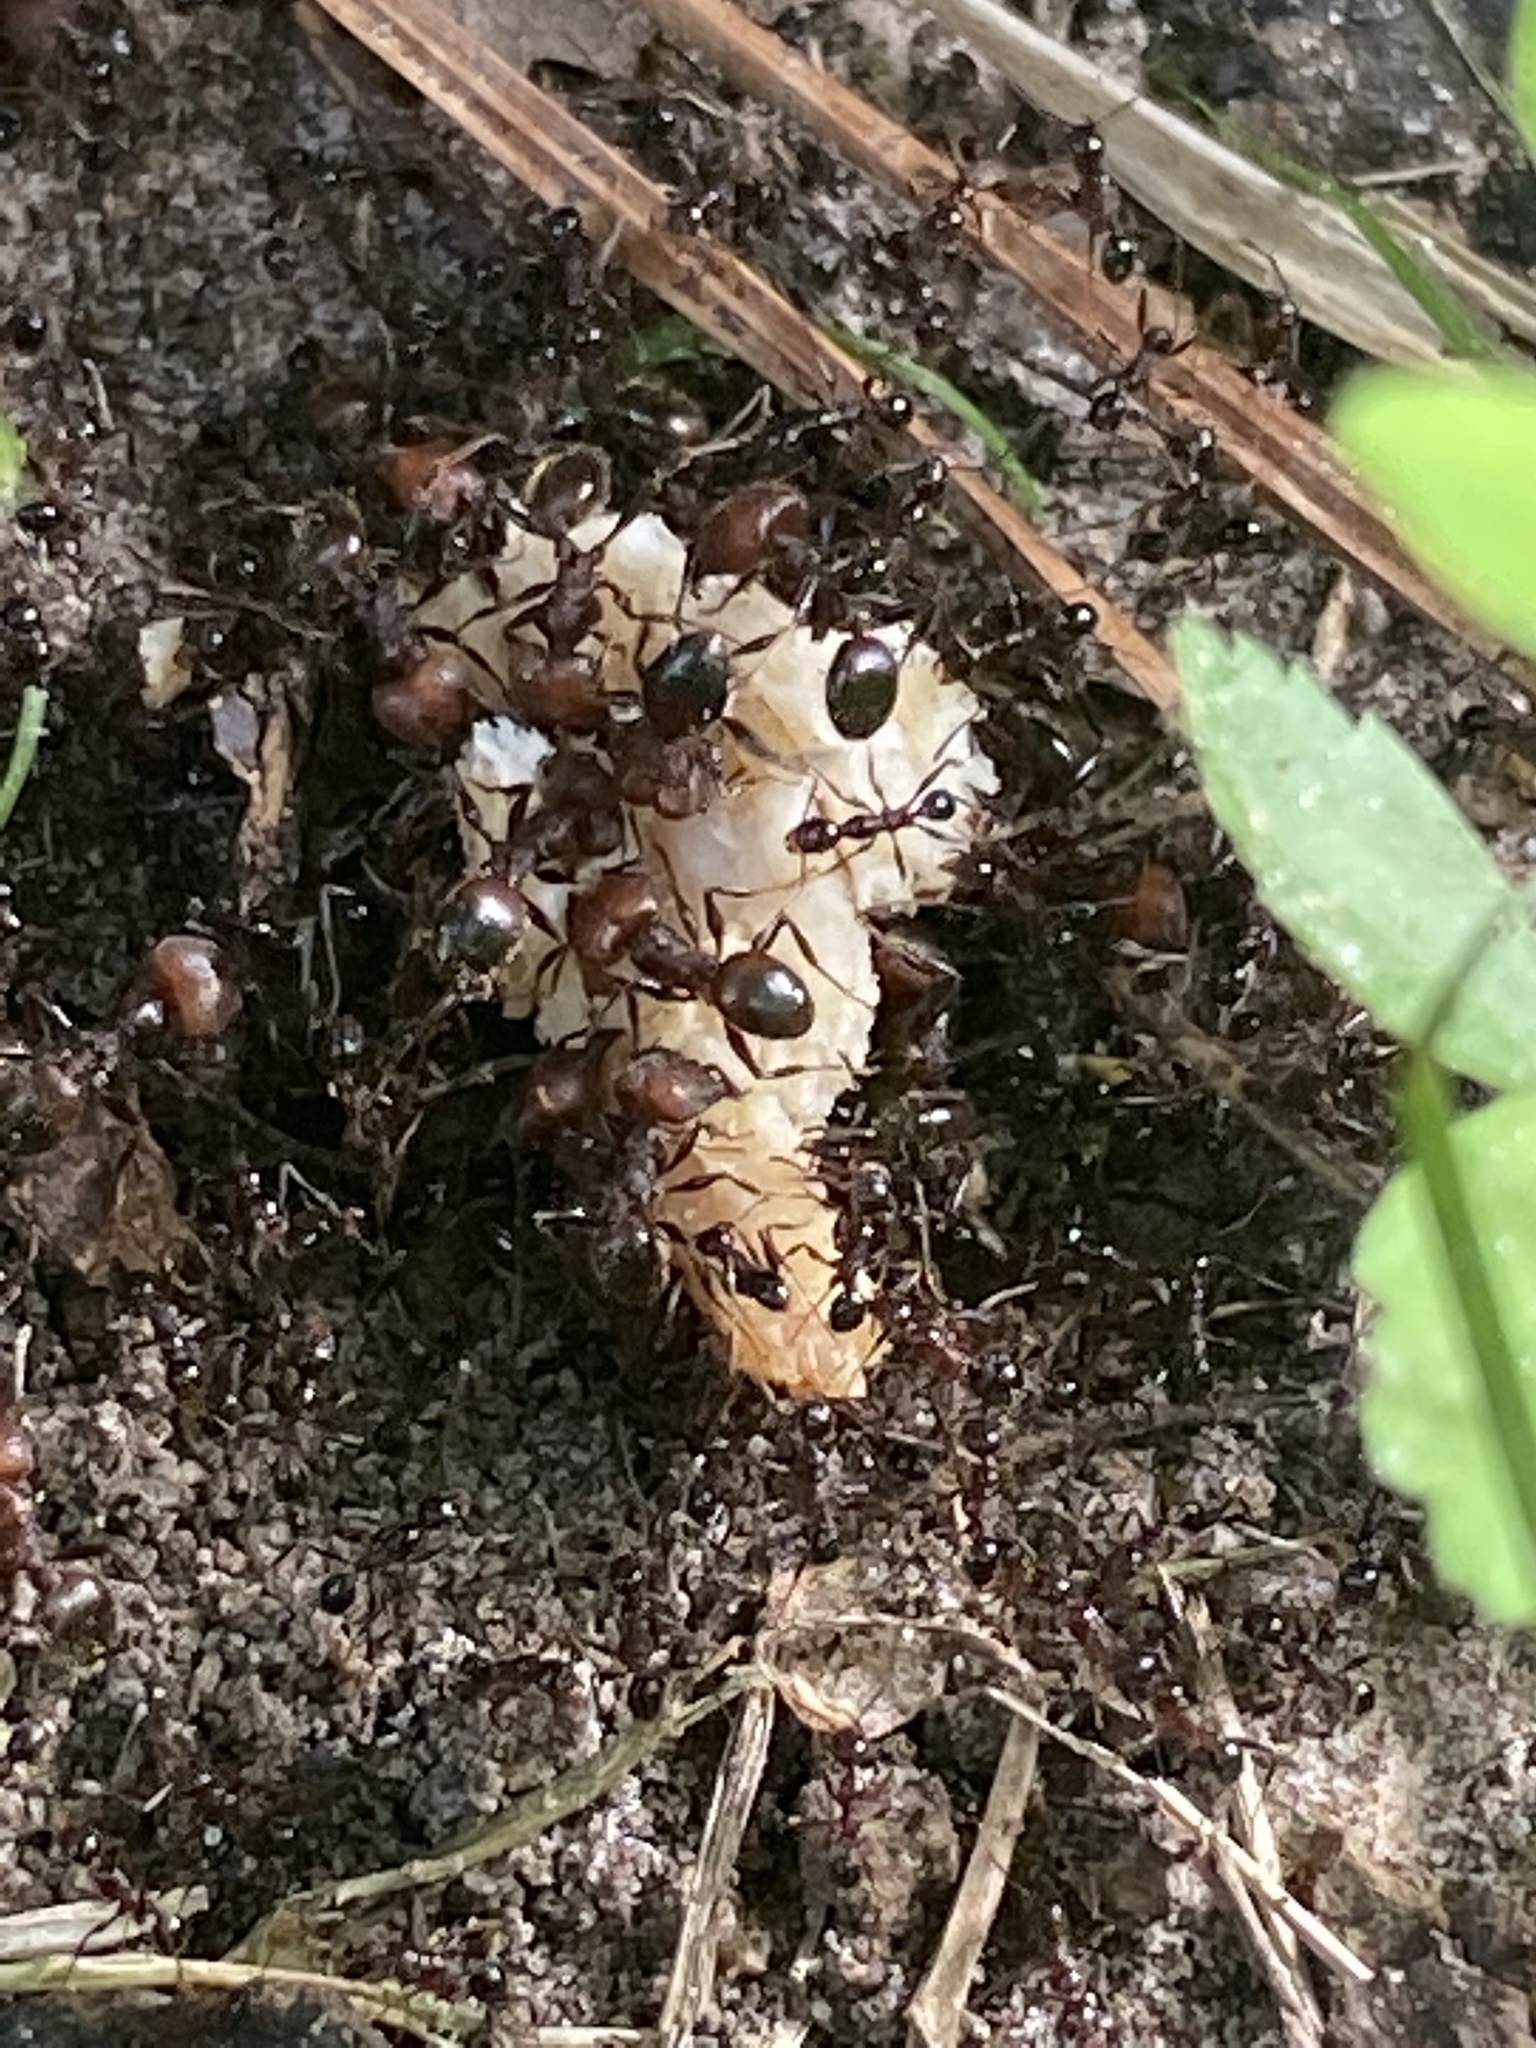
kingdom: Animalia
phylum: Arthropoda
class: Insecta
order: Hymenoptera
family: Formicidae
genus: Pheidole
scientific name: Pheidole obscurithorax
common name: Obscure big-headed ant
